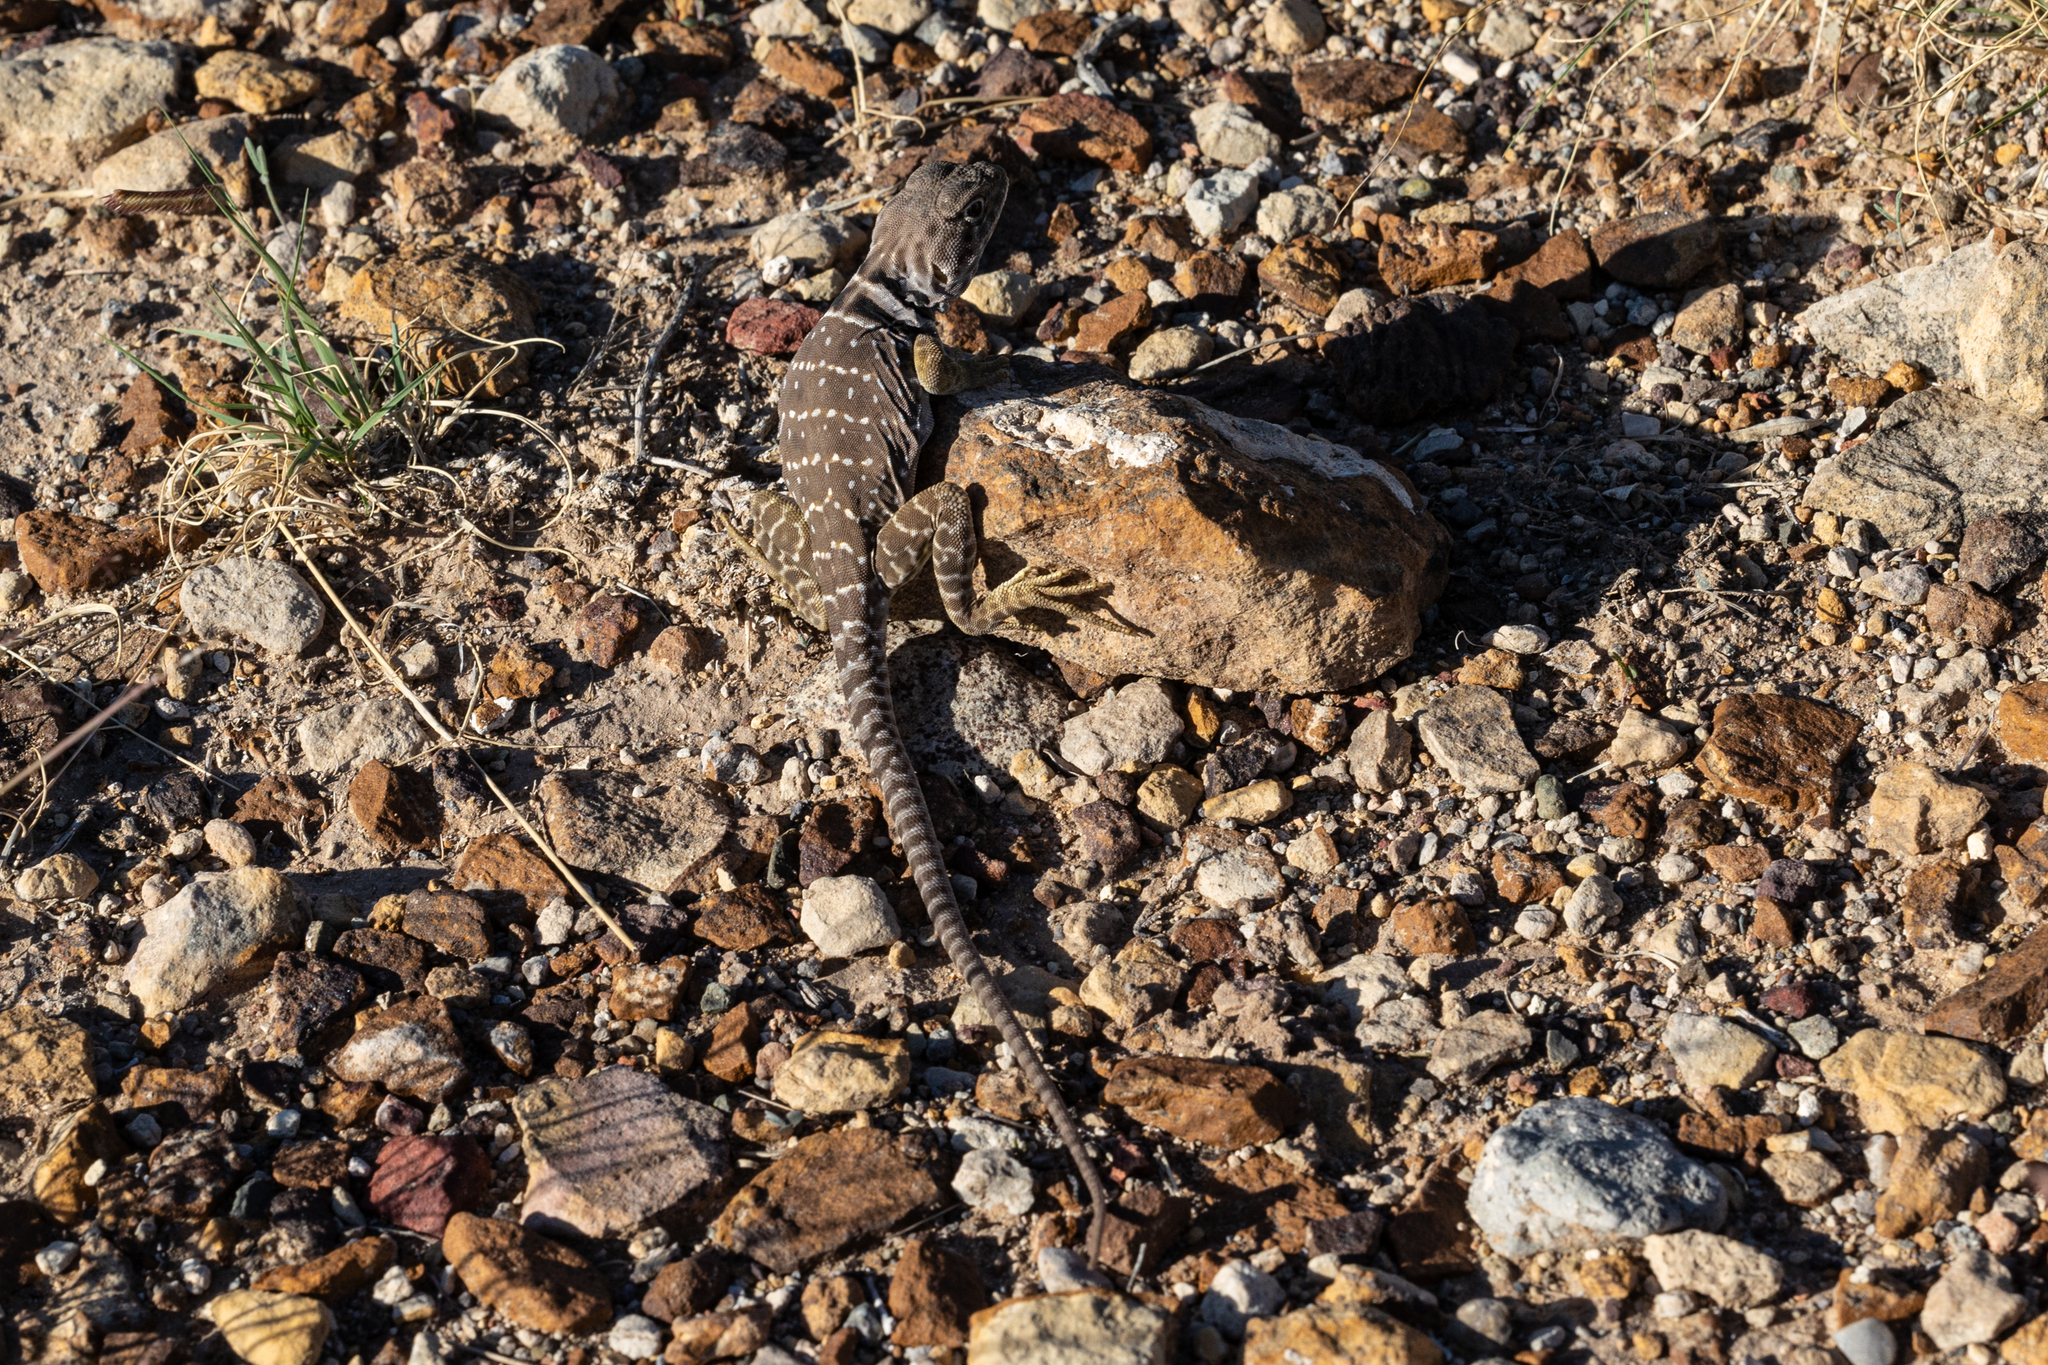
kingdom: Animalia
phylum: Chordata
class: Squamata
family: Crotaphytidae
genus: Crotaphytus
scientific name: Crotaphytus collaris
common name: Collared lizard
